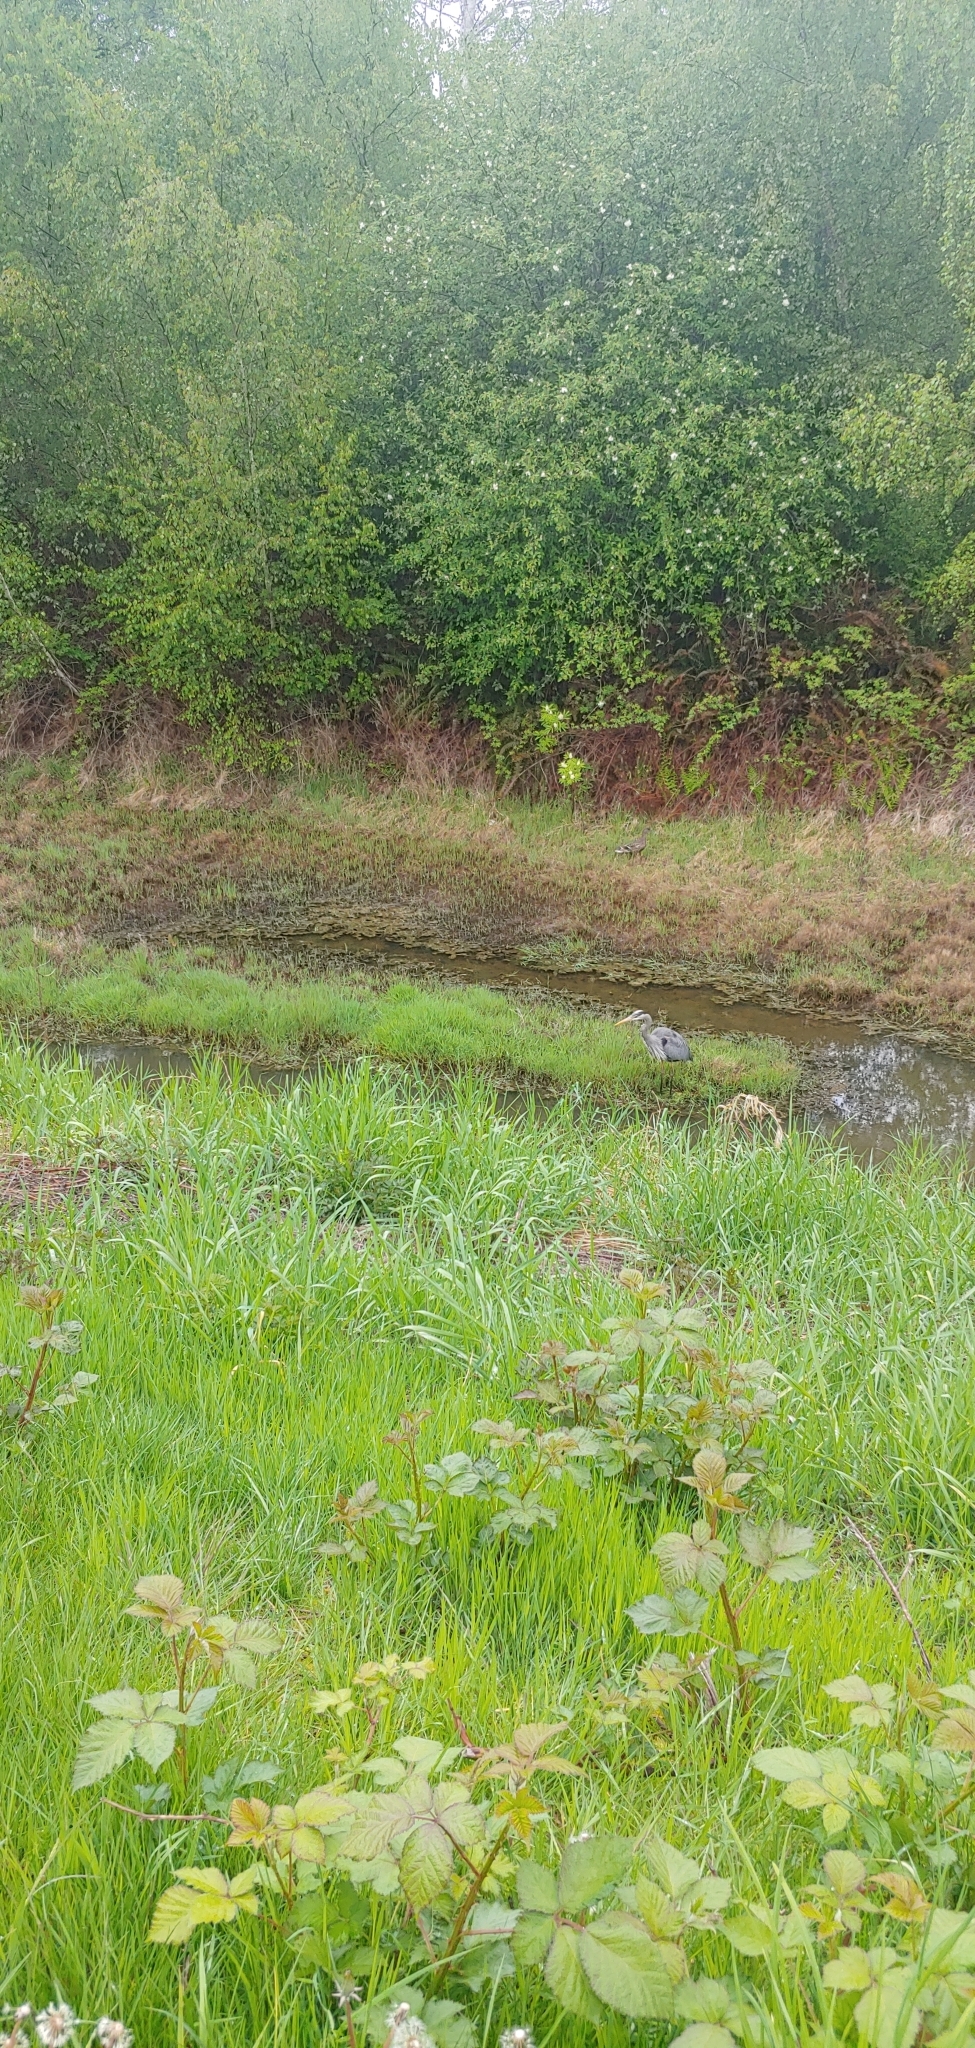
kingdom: Animalia
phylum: Chordata
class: Aves
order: Pelecaniformes
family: Ardeidae
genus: Ardea
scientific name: Ardea herodias
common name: Great blue heron
